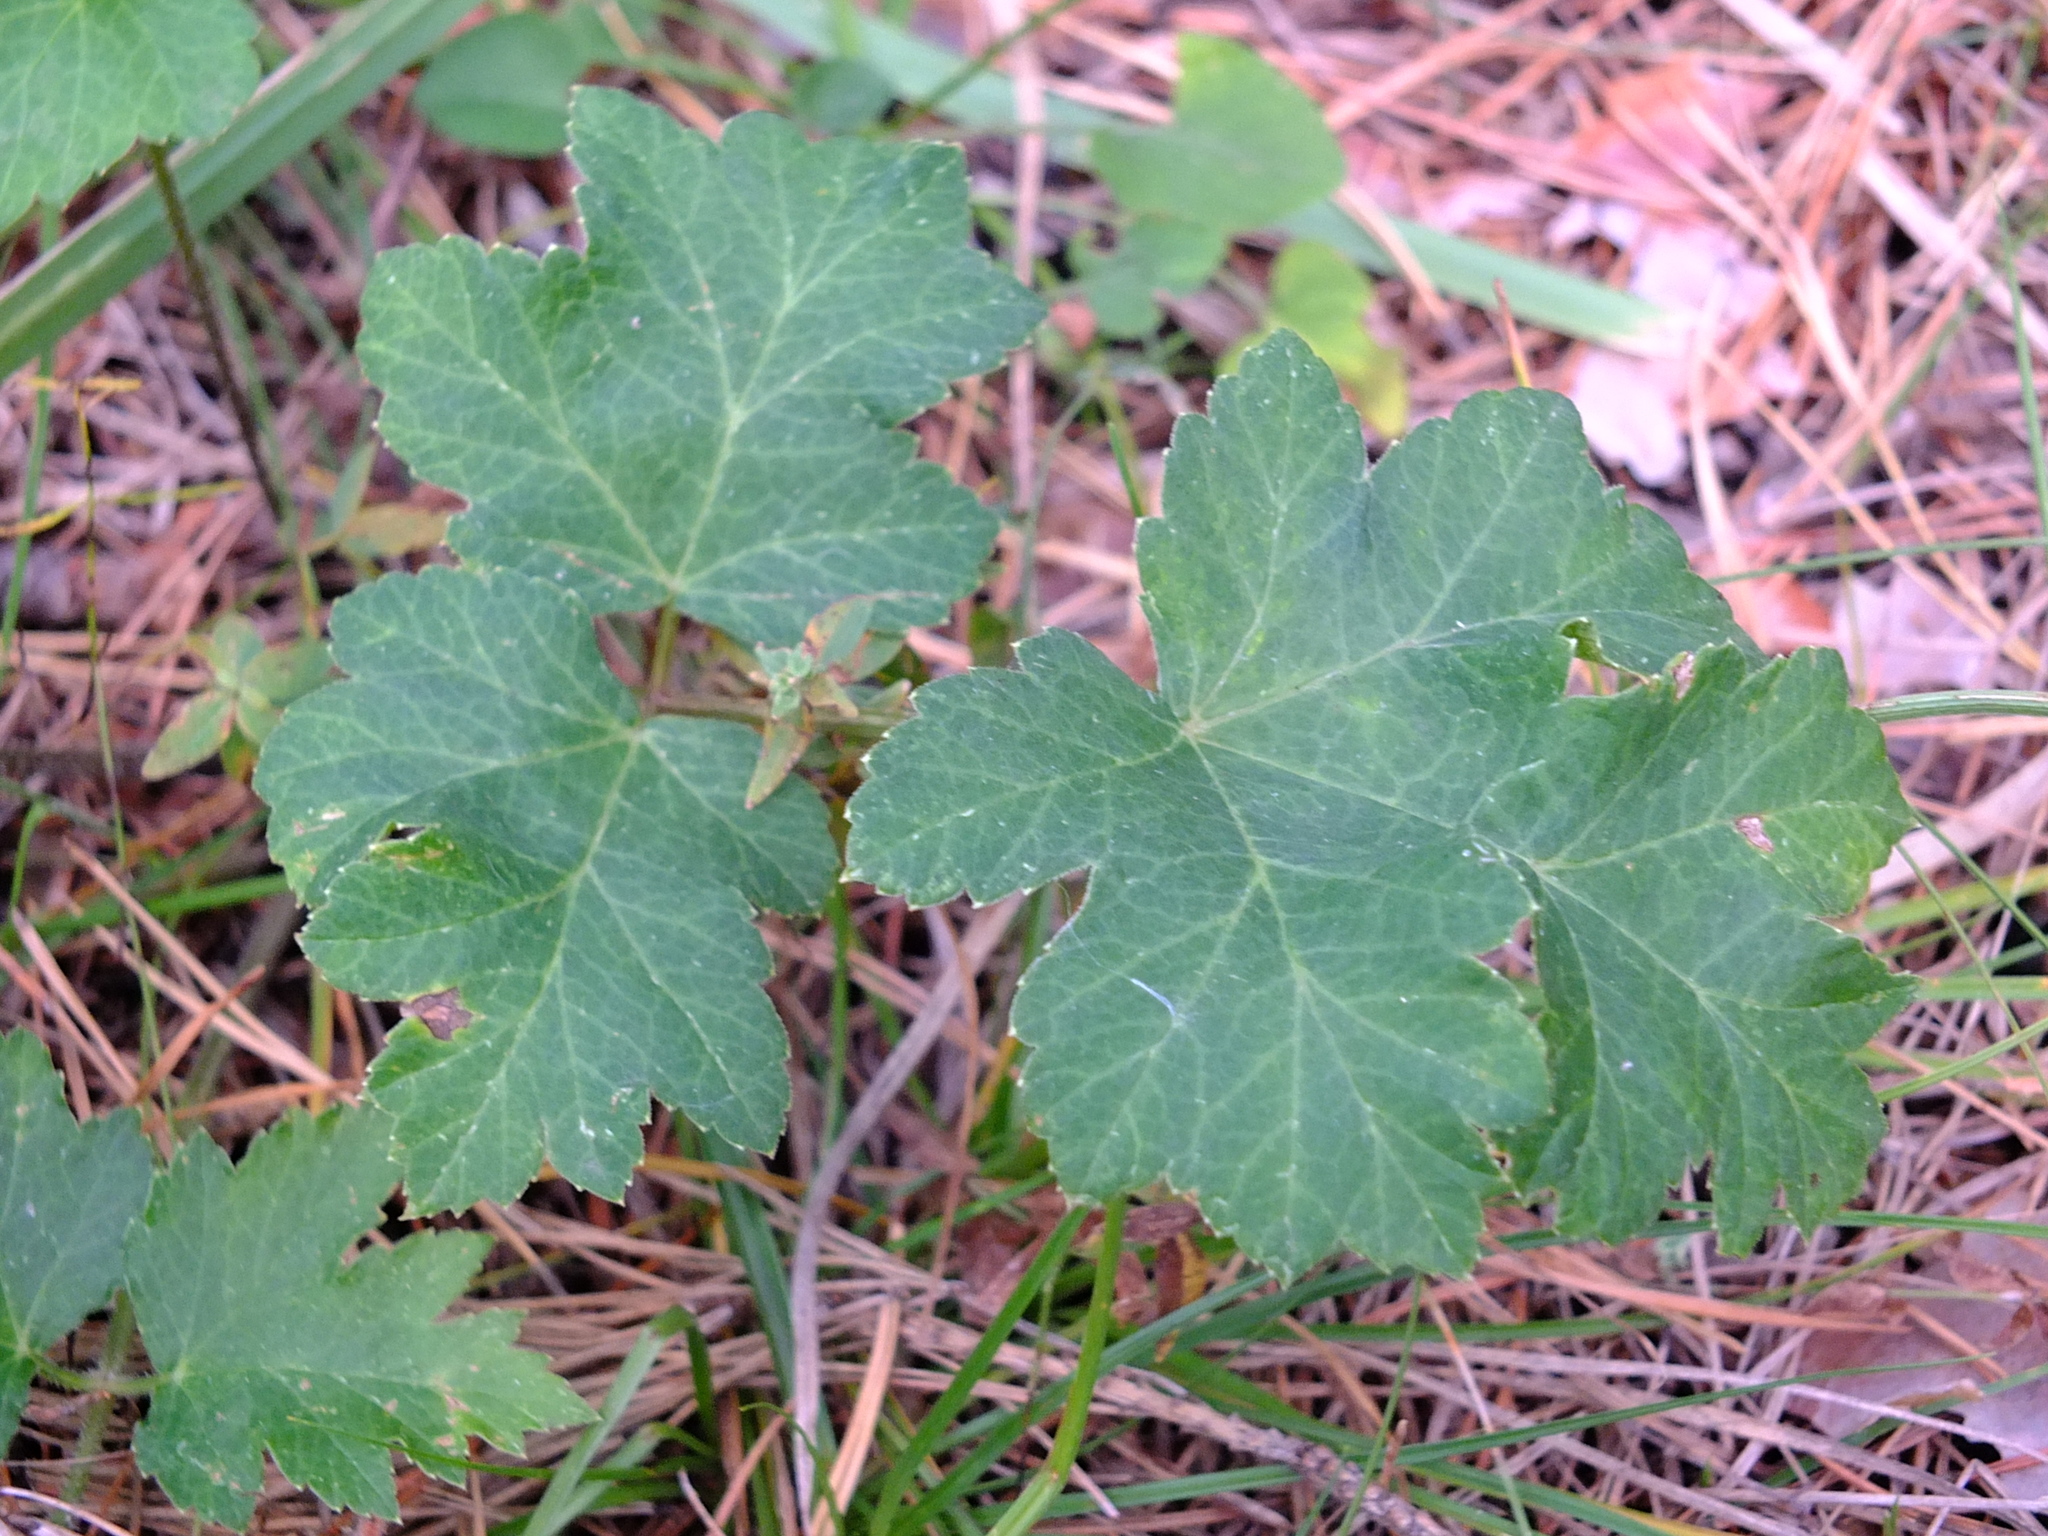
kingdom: Plantae
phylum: Tracheophyta
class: Magnoliopsida
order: Apiales
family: Apiaceae
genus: Heracleum
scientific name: Heracleum sphondylium
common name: Hogweed
